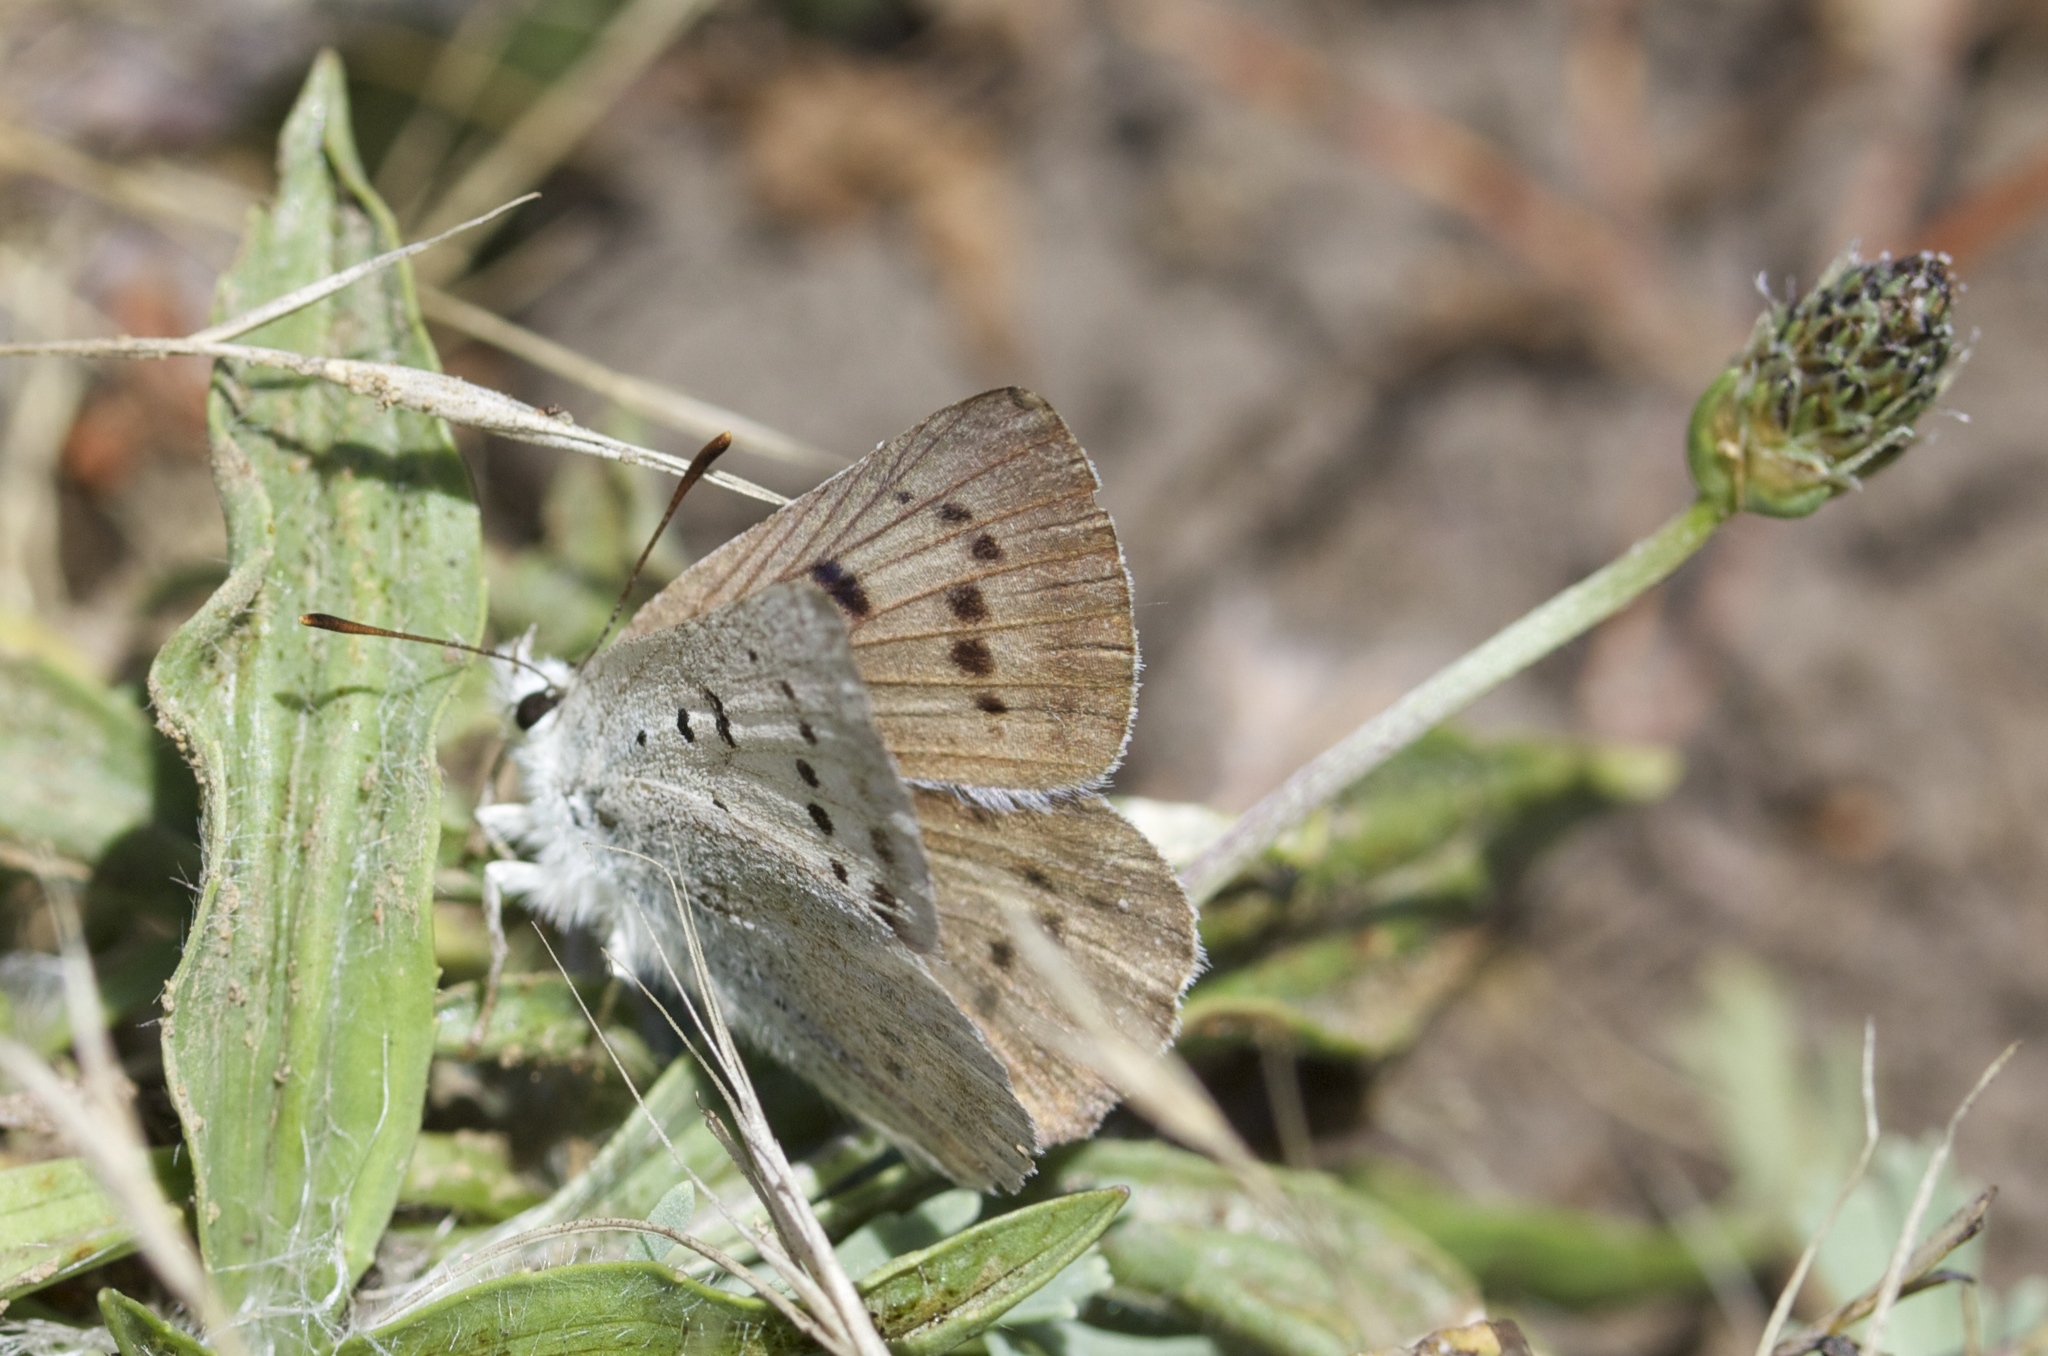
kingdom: Animalia
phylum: Arthropoda
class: Insecta
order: Lepidoptera
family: Lycaenidae
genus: Tharsalea
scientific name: Tharsalea heteronea
